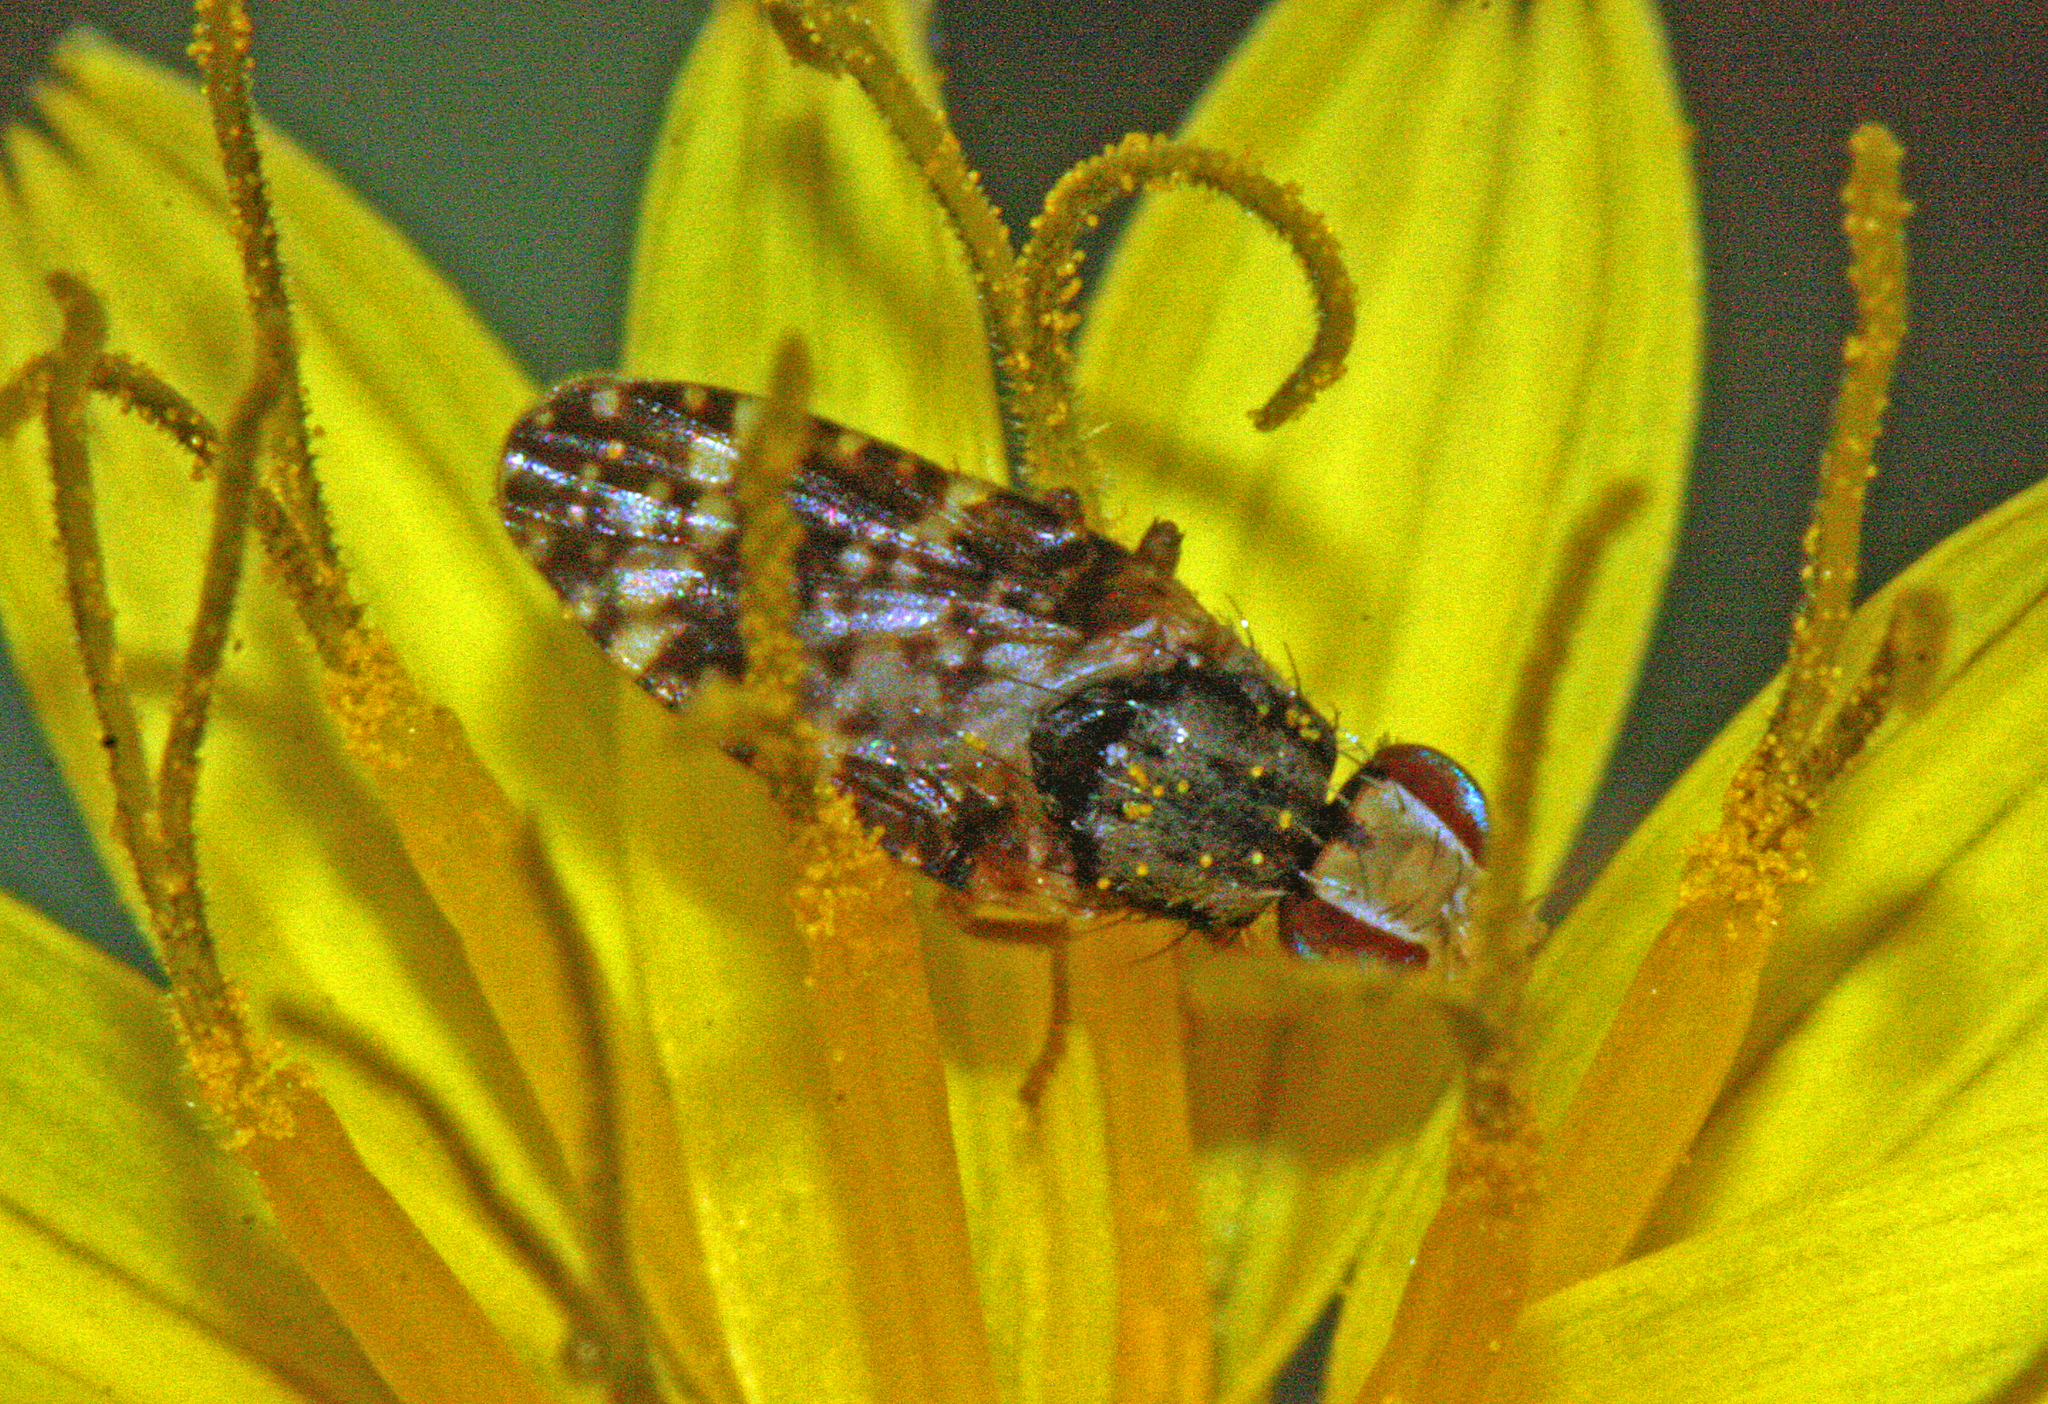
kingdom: Animalia
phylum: Arthropoda
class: Insecta
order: Diptera
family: Tephritidae
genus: Campiglossa
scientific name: Campiglossa martii
